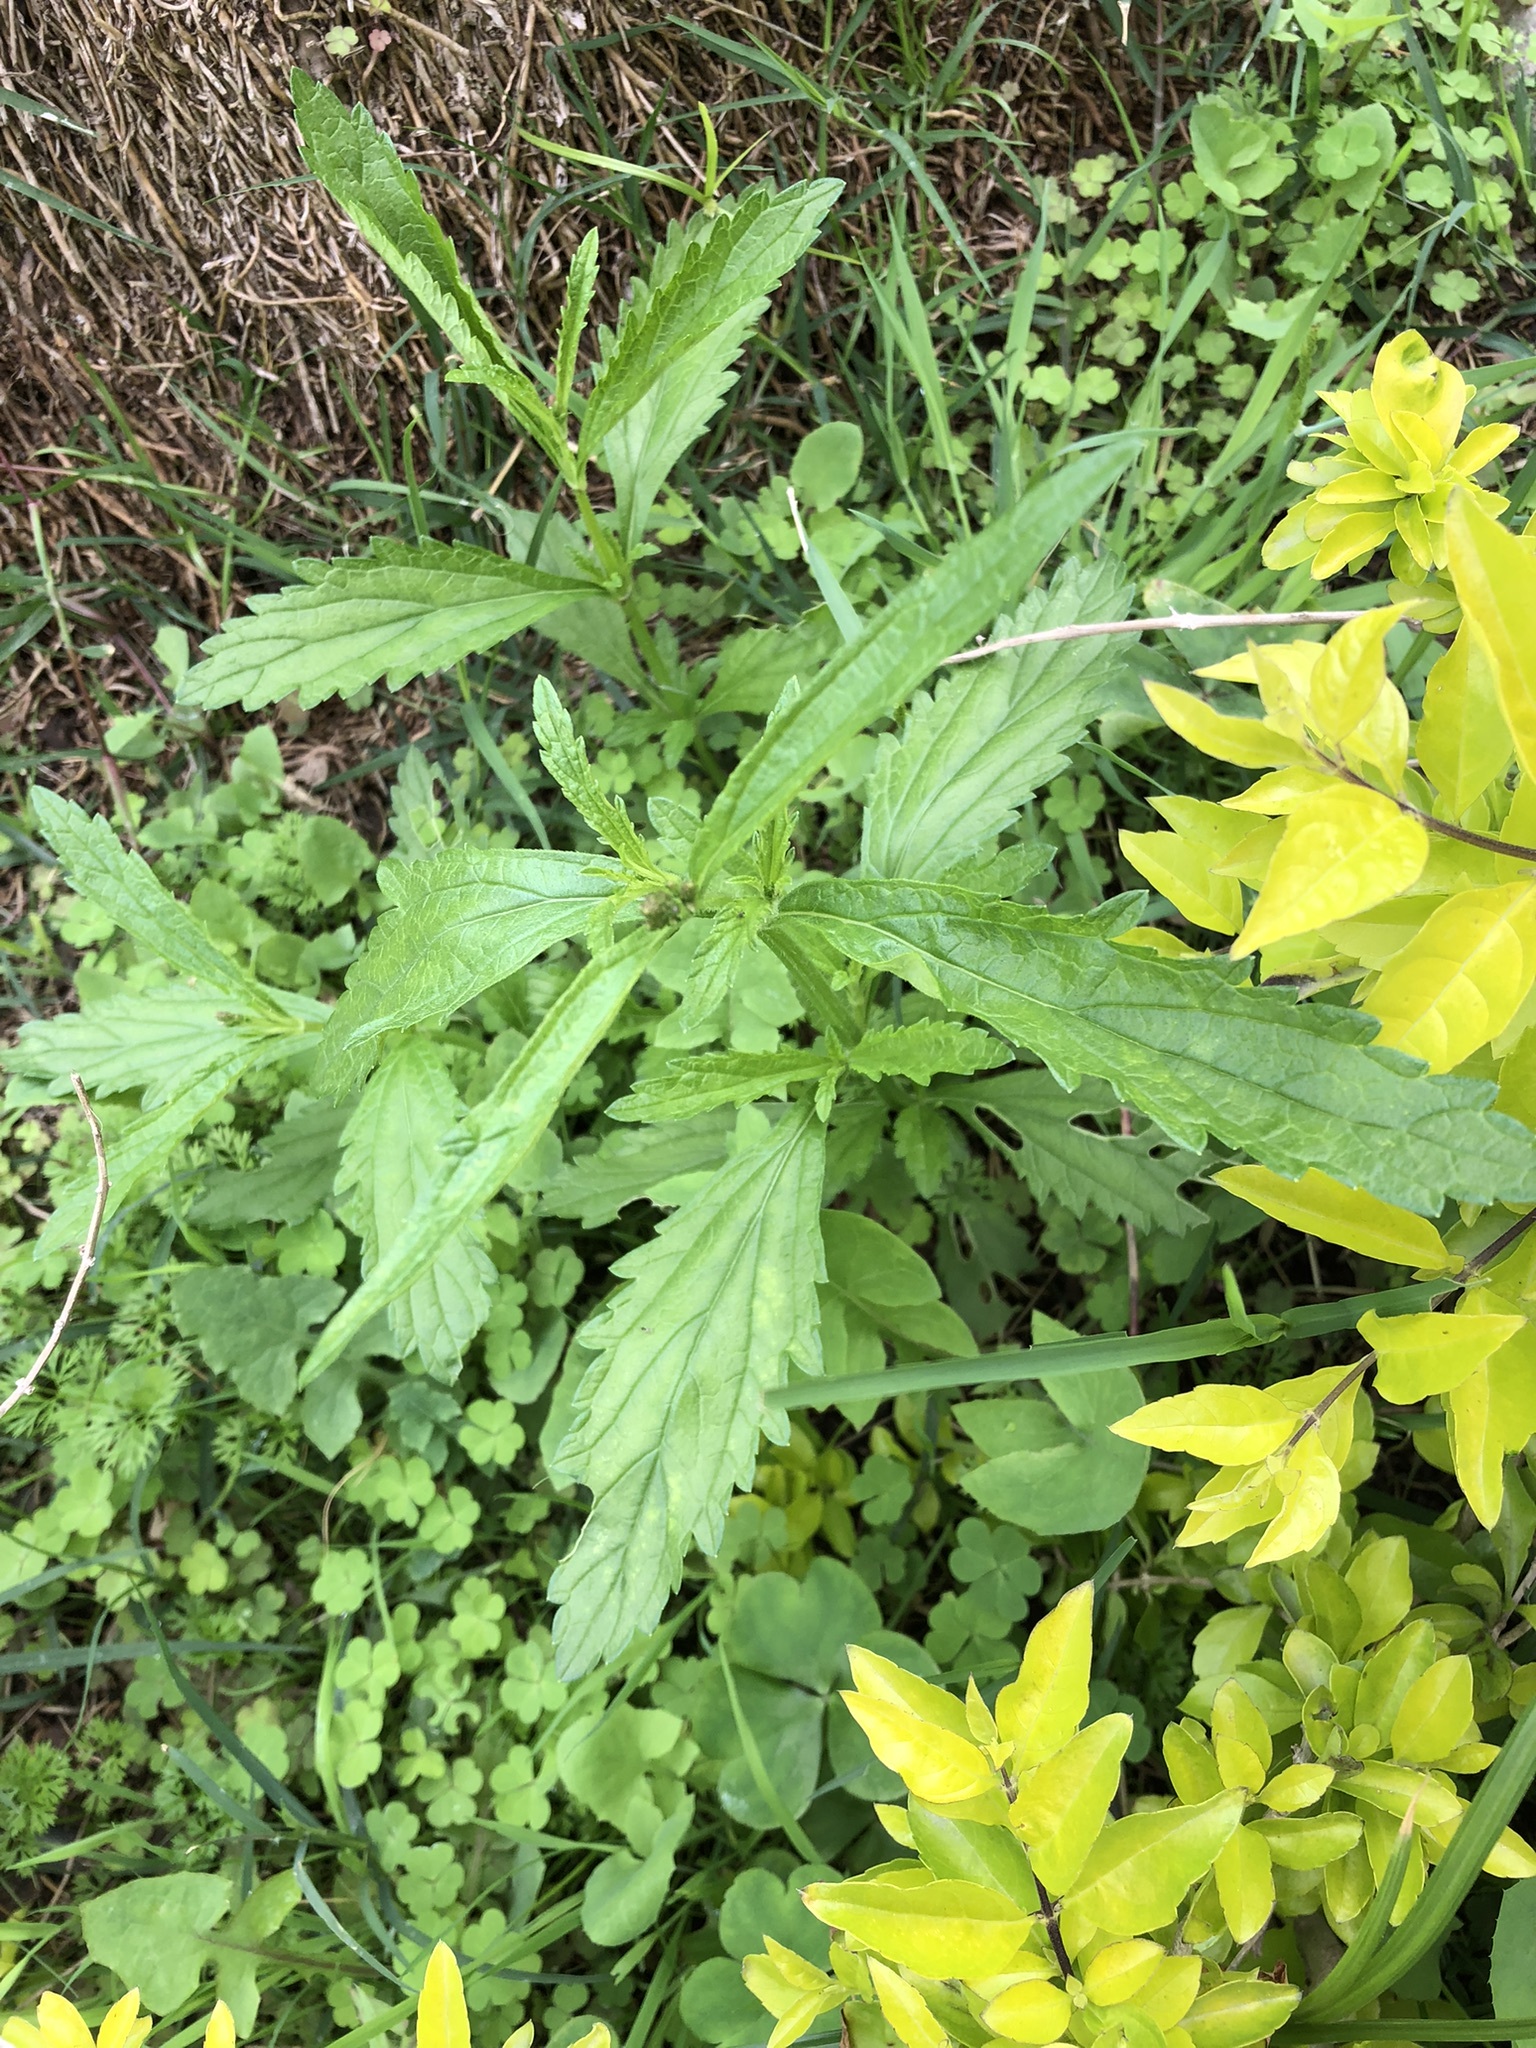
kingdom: Plantae
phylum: Tracheophyta
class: Magnoliopsida
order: Lamiales
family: Verbenaceae
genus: Verbena
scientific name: Verbena litoralis
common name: Seashore vervain
